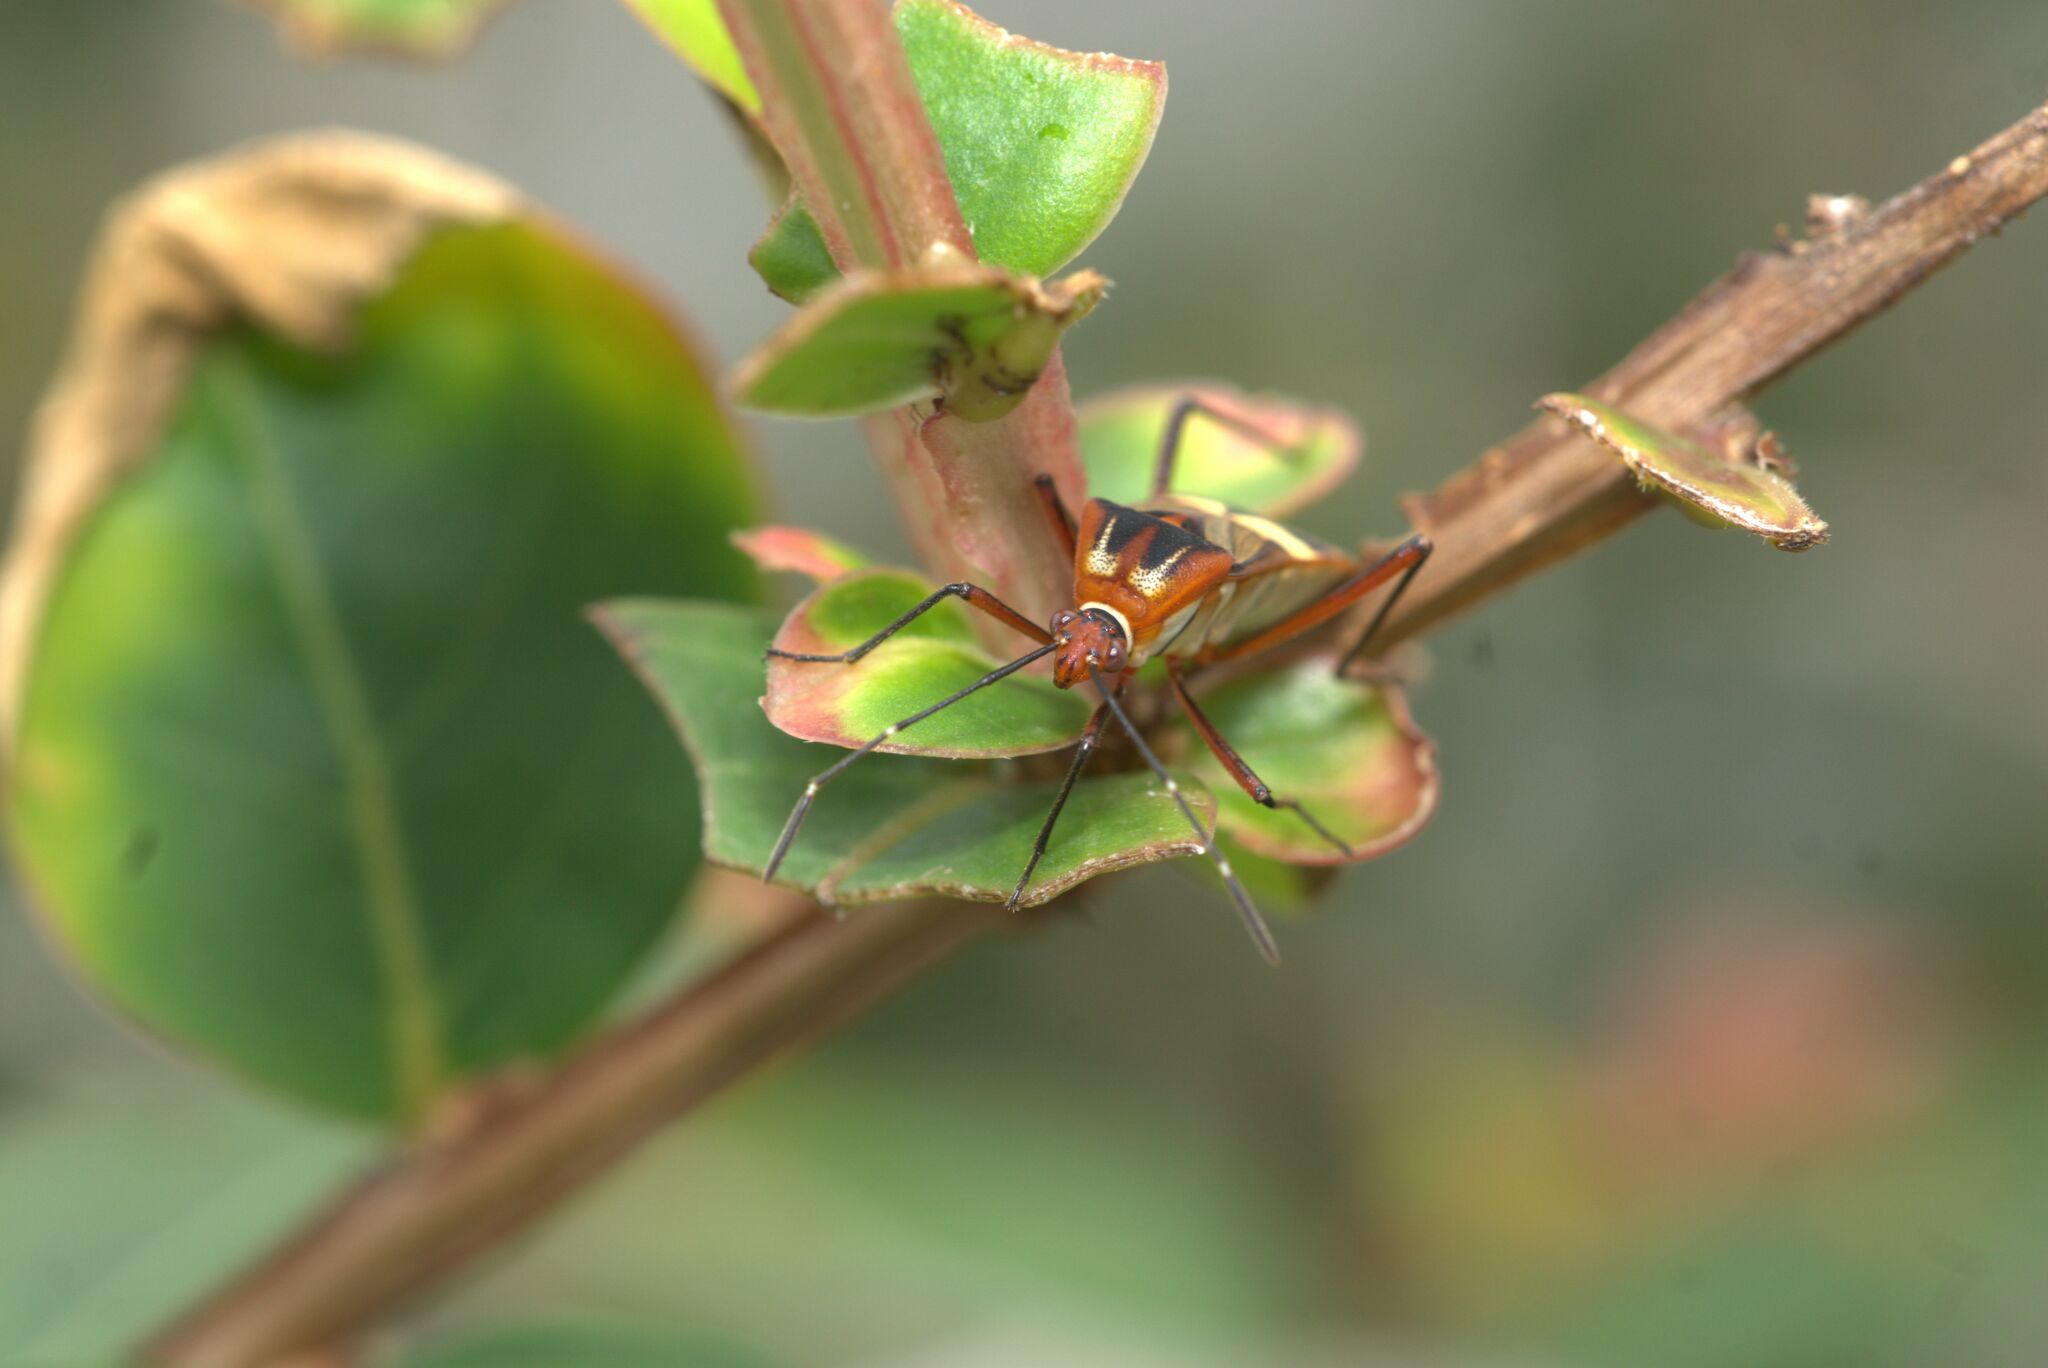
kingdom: Animalia
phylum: Arthropoda
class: Insecta
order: Hemiptera
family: Coreidae
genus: Hypselonotus
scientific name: Hypselonotus interruptus
